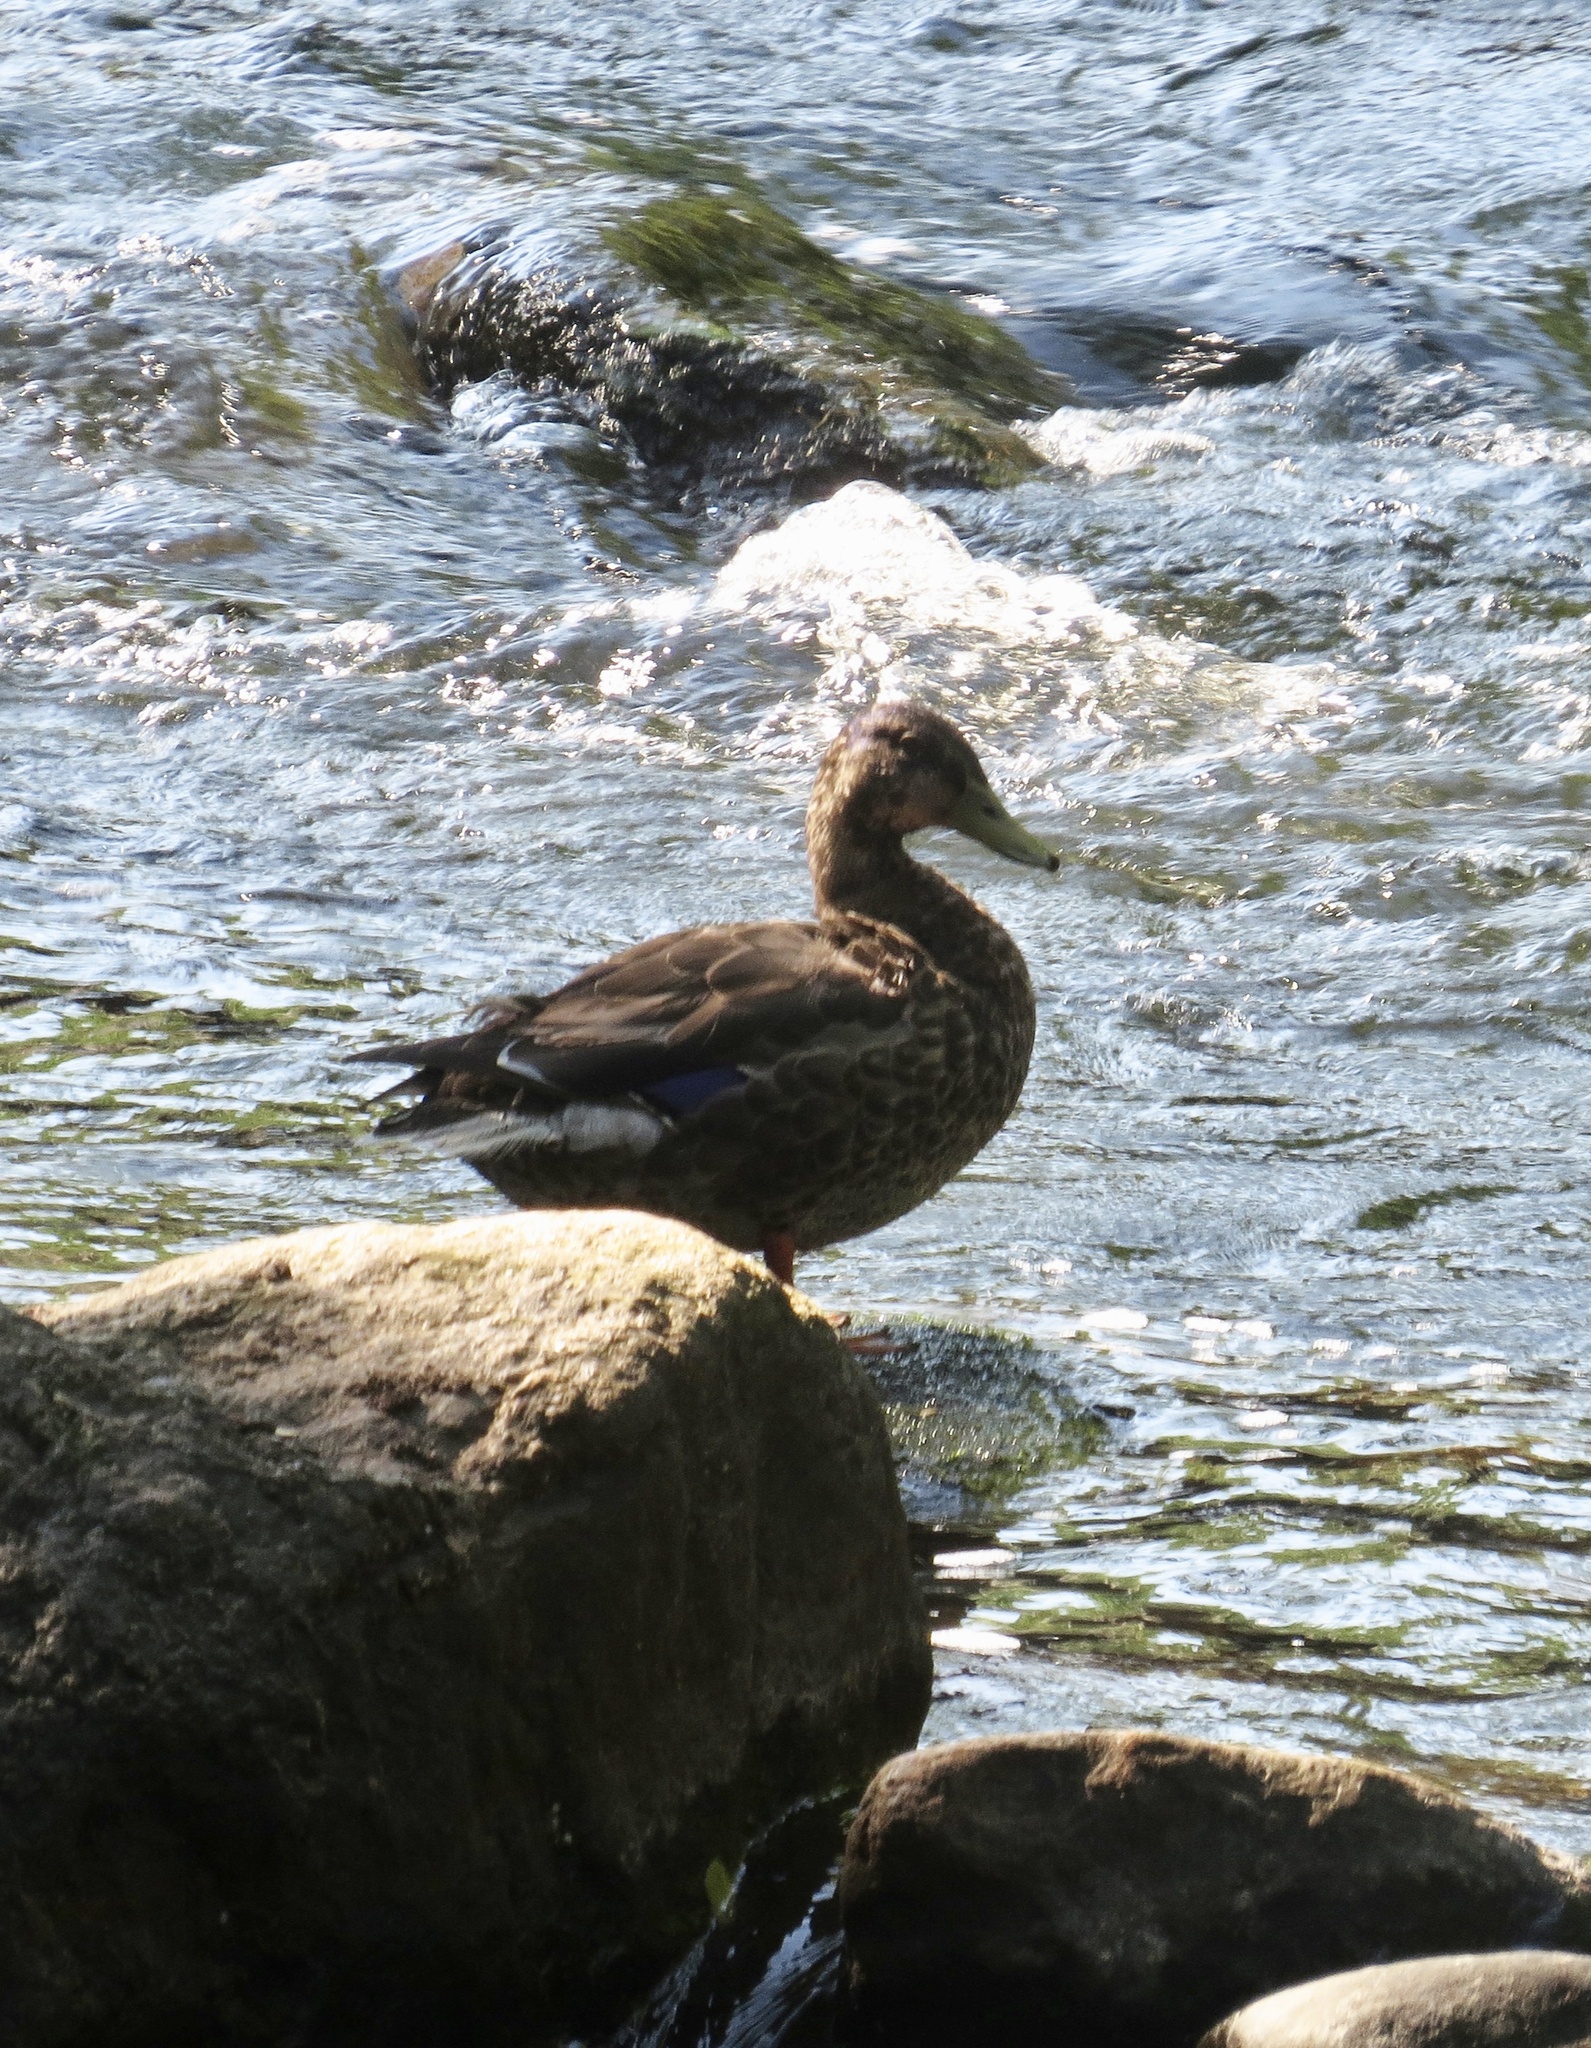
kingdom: Animalia
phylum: Chordata
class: Aves
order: Anseriformes
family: Anatidae
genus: Anas
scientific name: Anas platyrhynchos
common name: Mallard
